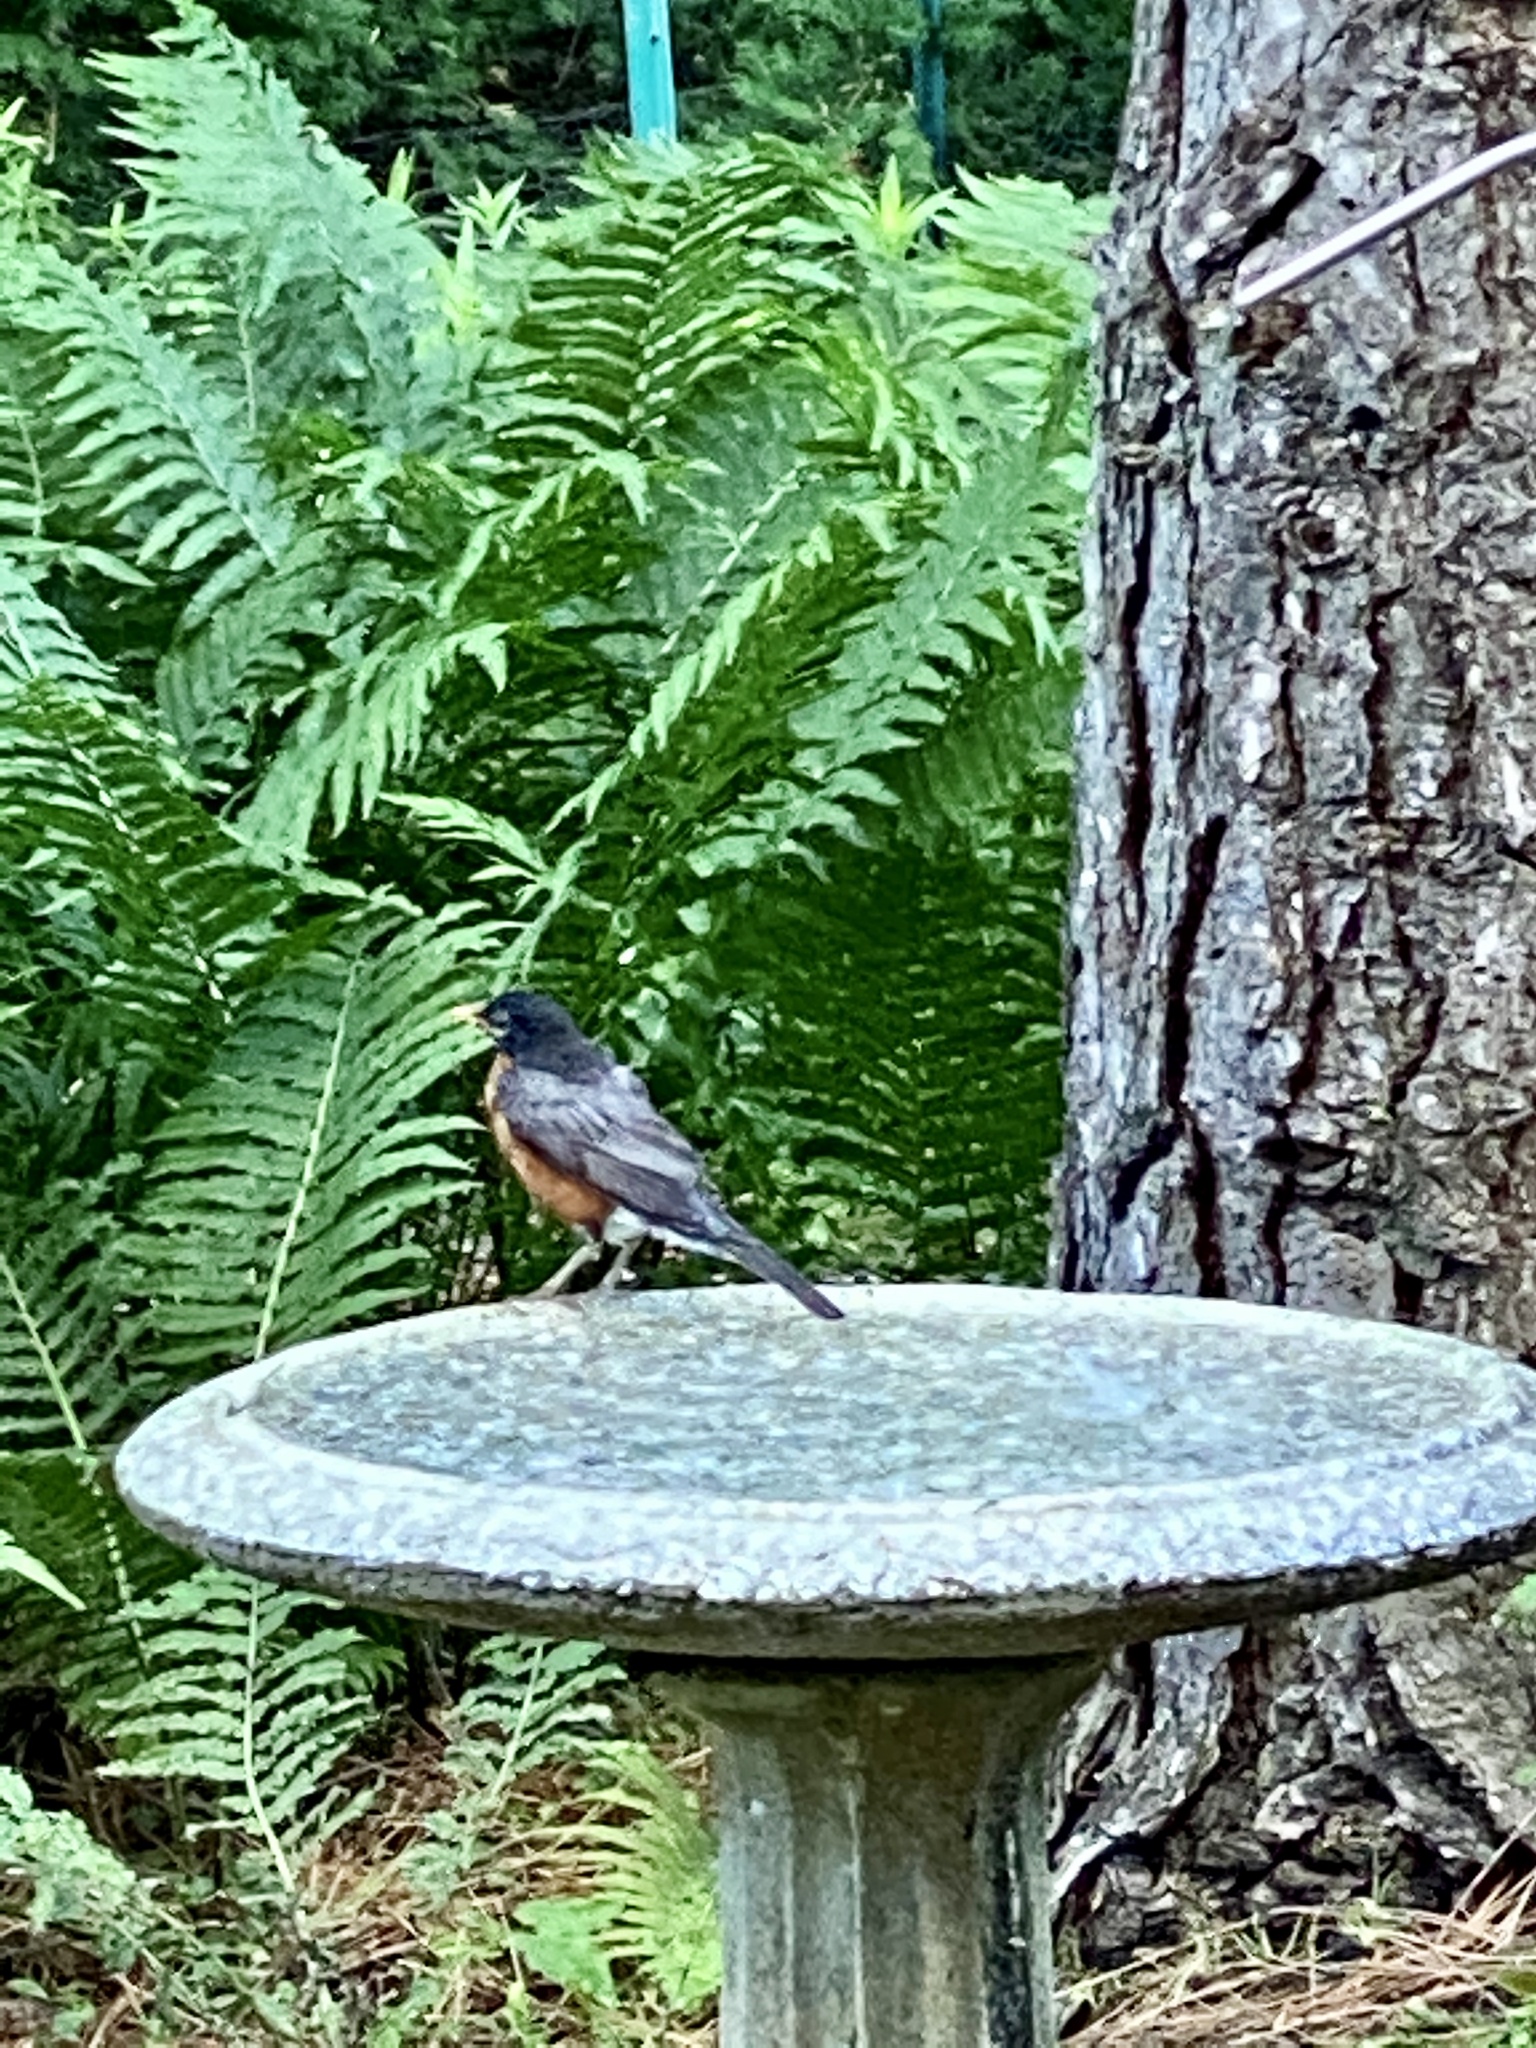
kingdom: Animalia
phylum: Chordata
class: Aves
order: Passeriformes
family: Turdidae
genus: Turdus
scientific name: Turdus migratorius
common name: American robin
